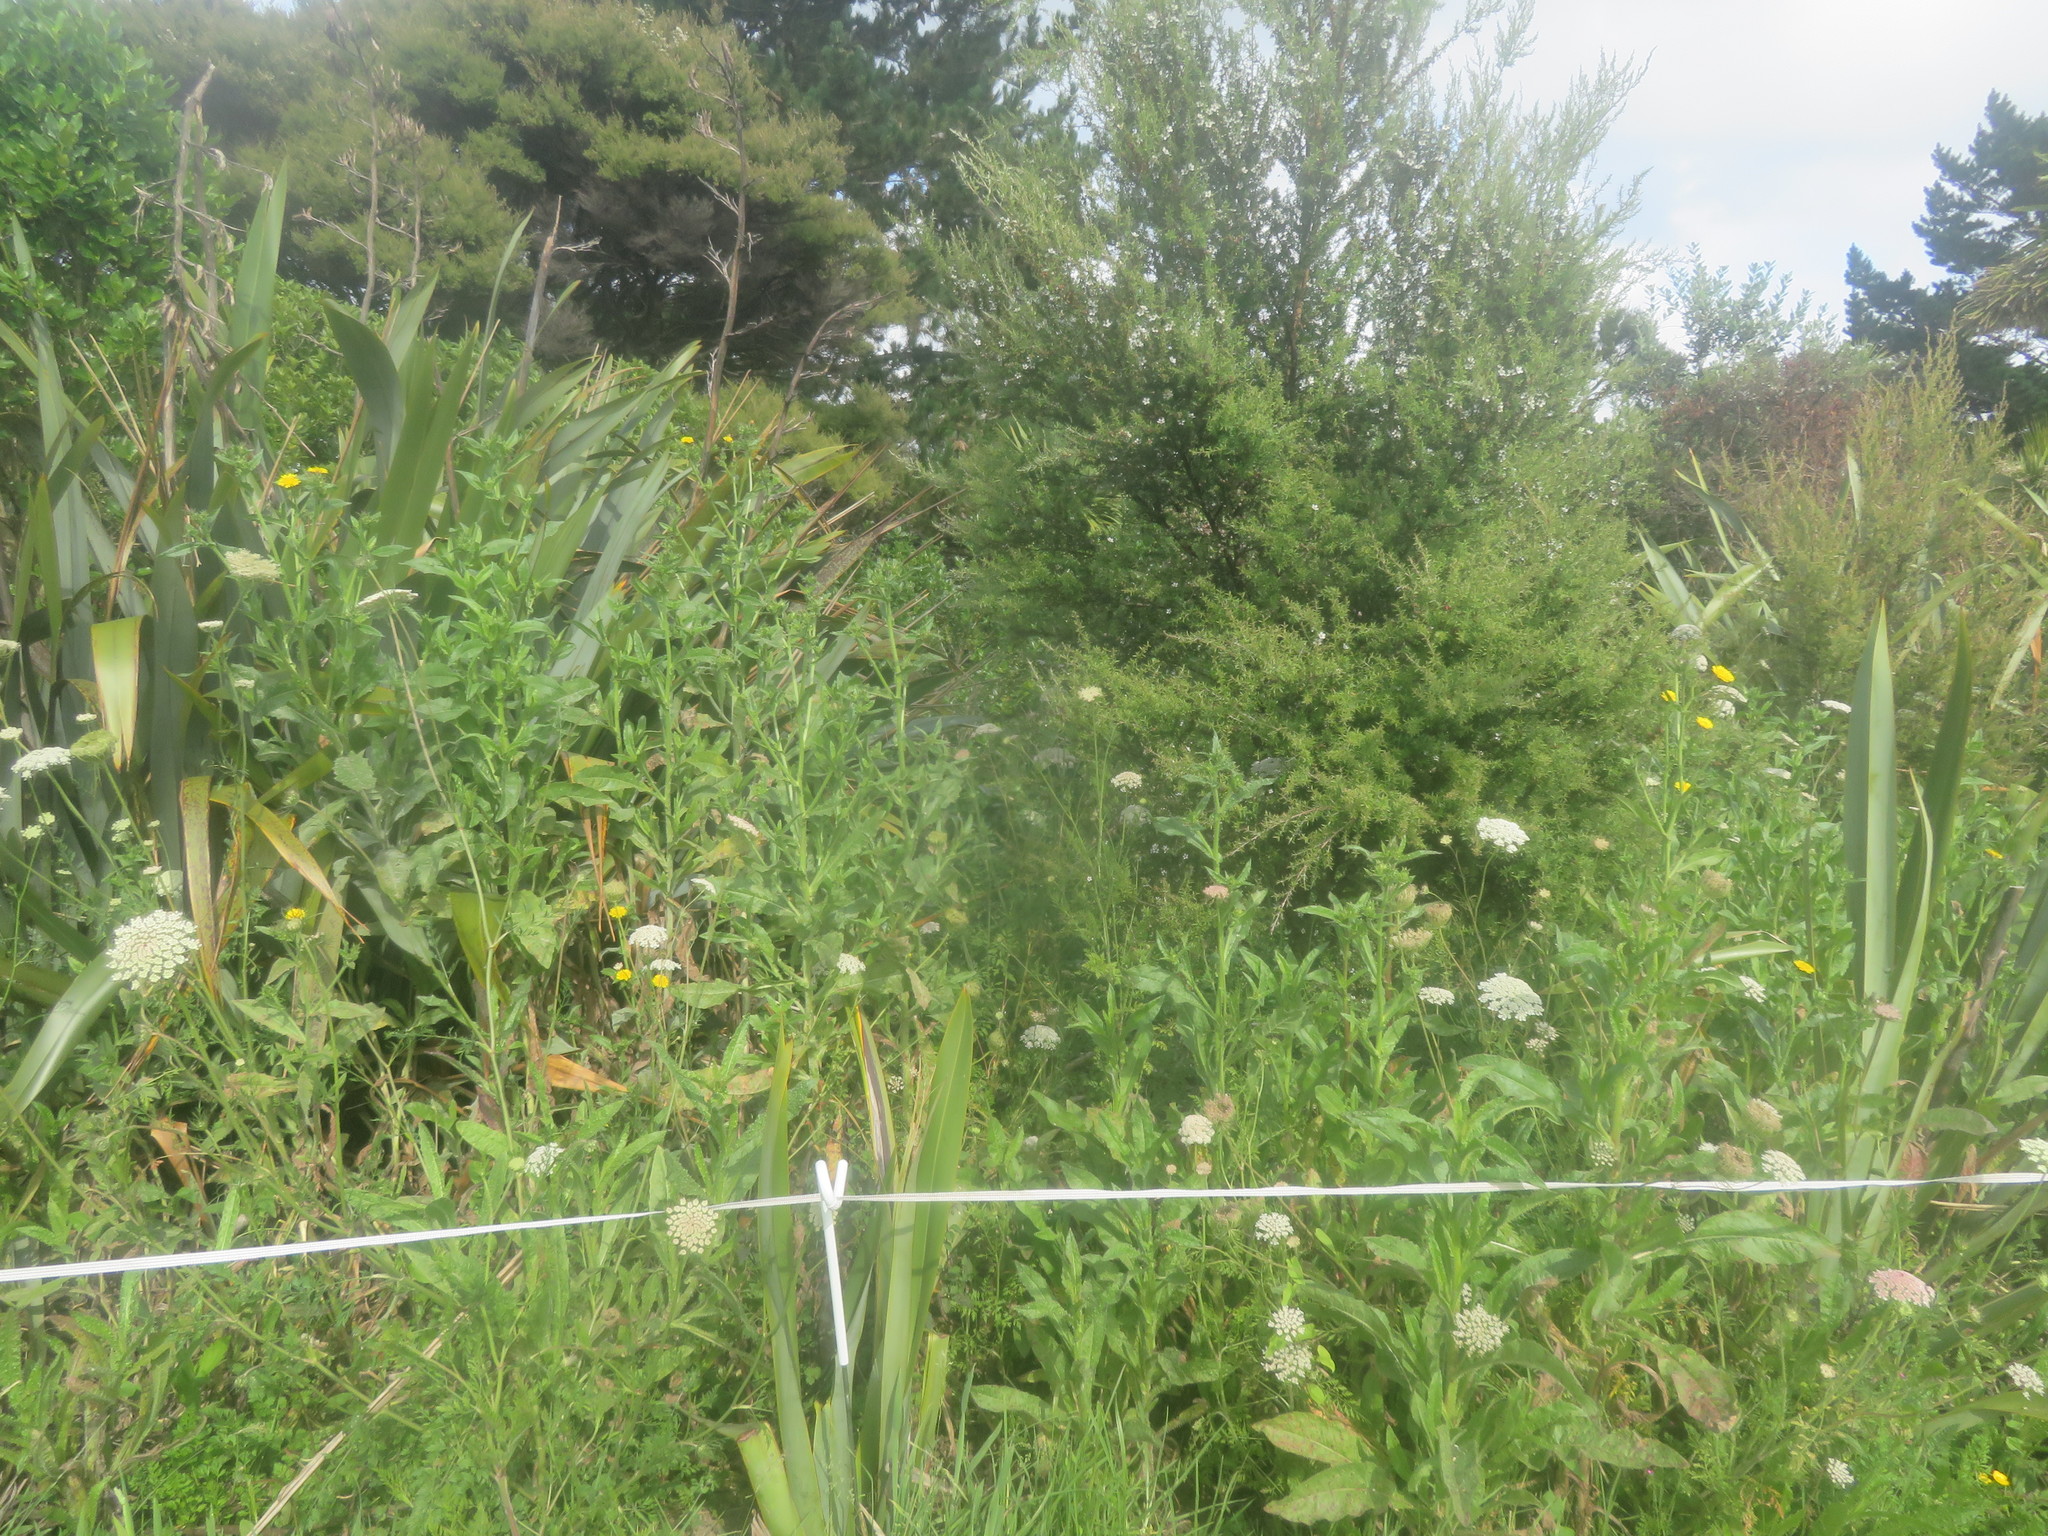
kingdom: Plantae
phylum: Tracheophyta
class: Magnoliopsida
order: Myrtales
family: Myrtaceae
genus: Leptospermum
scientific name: Leptospermum scoparium
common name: Broom tea-tree
